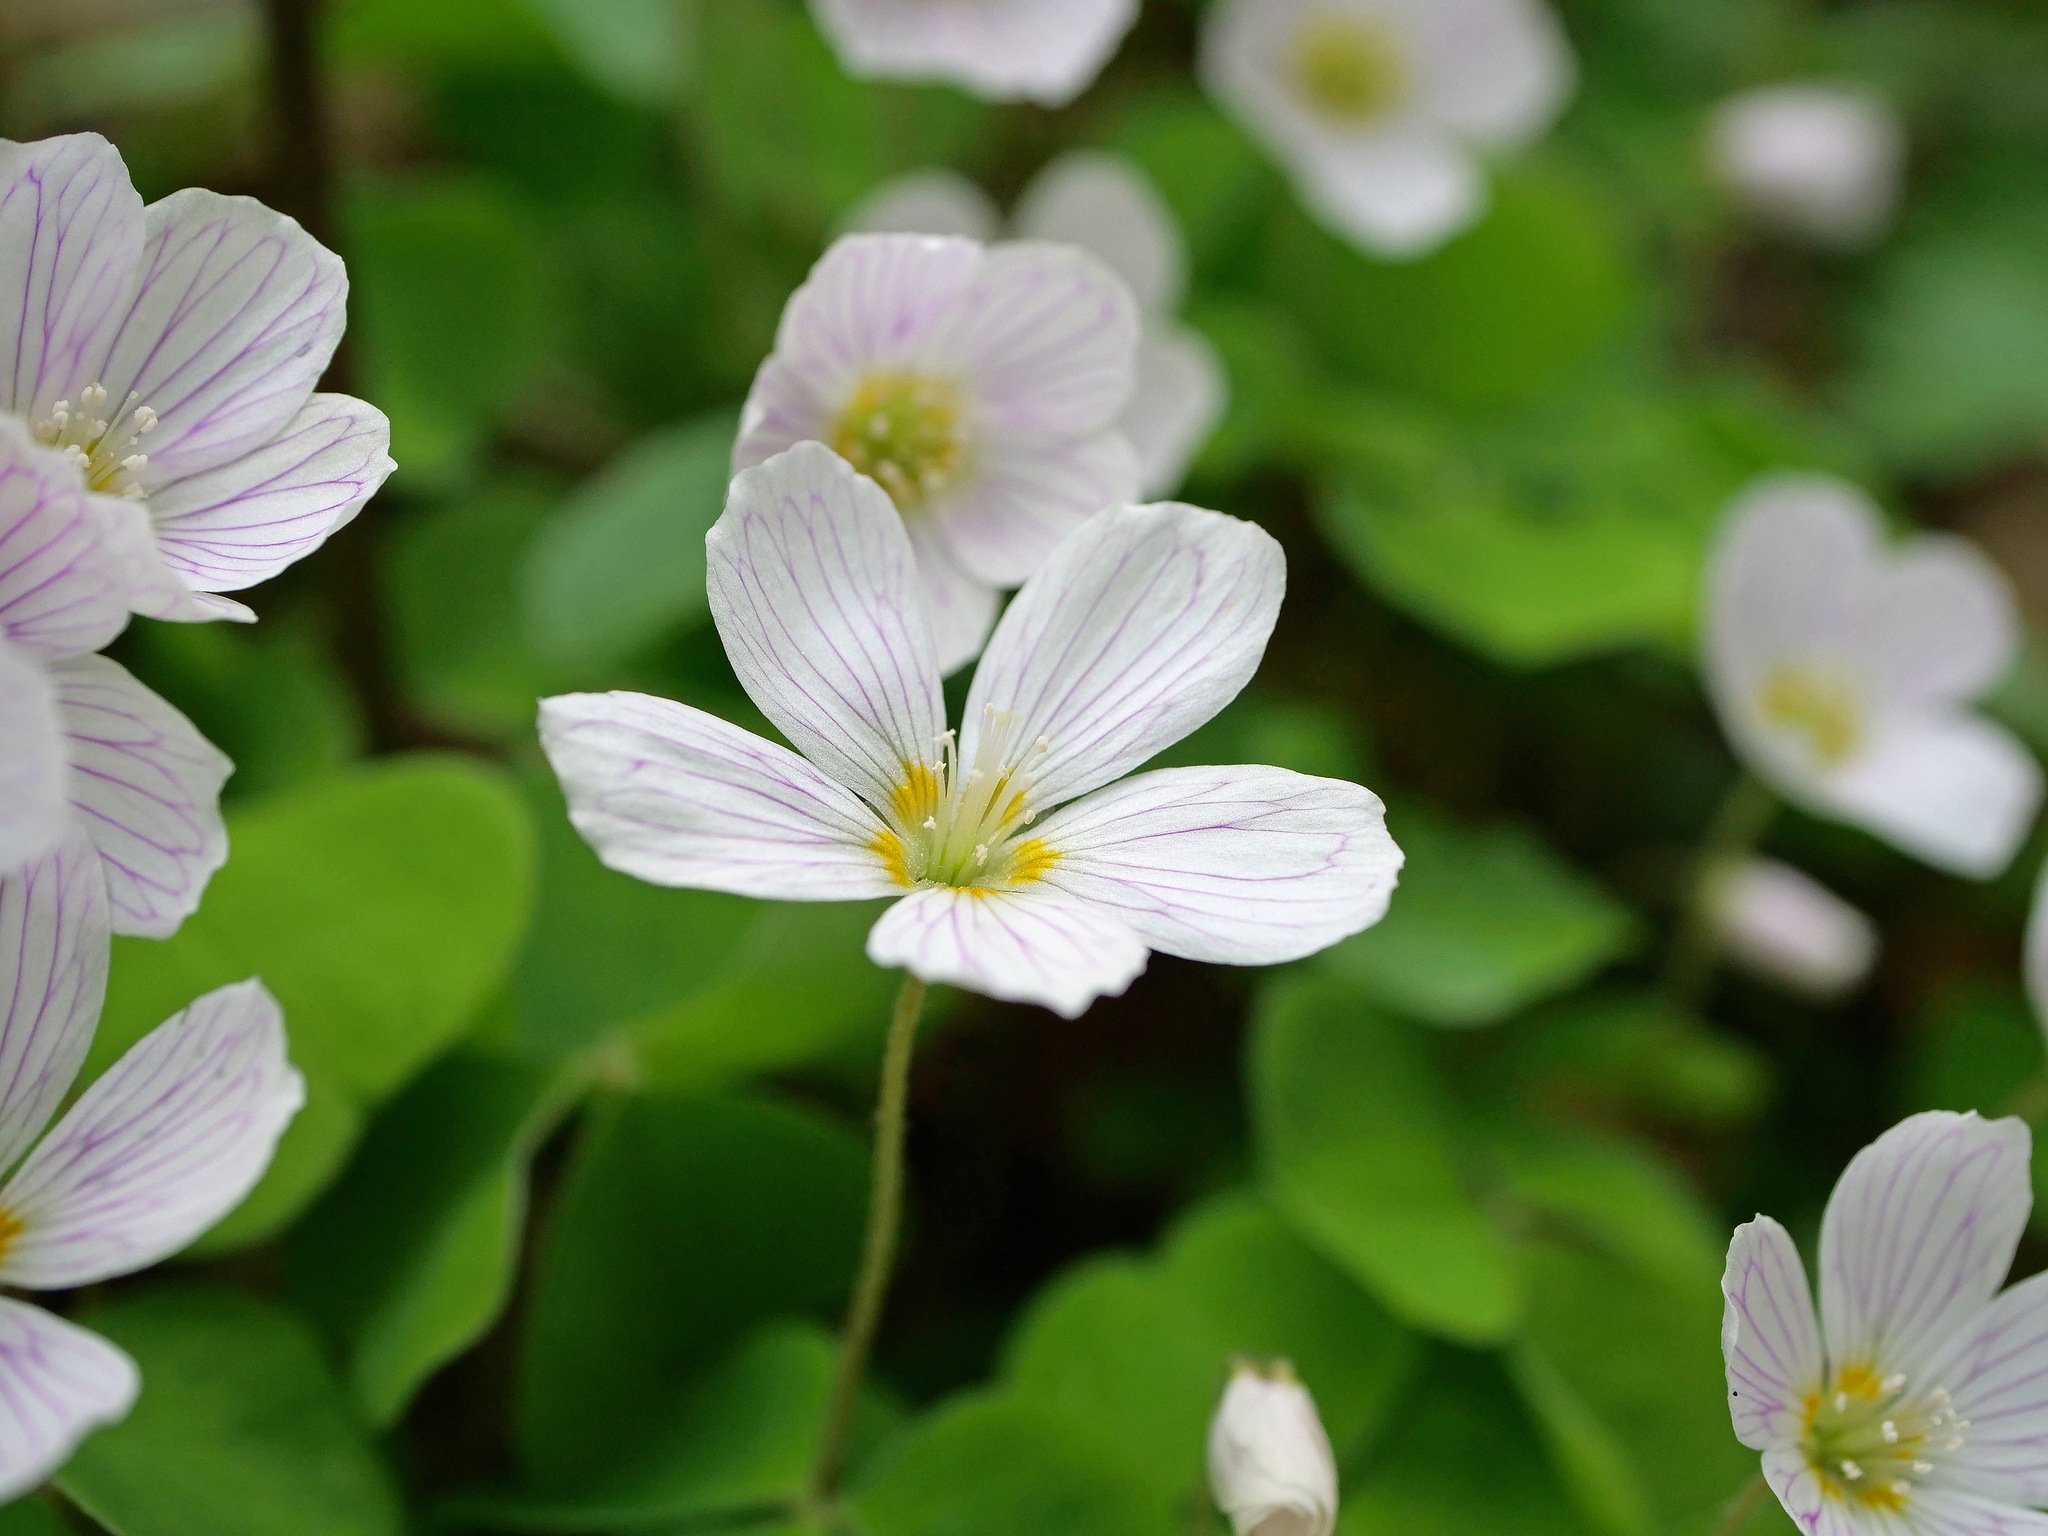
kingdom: Plantae
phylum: Tracheophyta
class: Magnoliopsida
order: Oxalidales
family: Oxalidaceae
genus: Oxalis
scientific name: Oxalis acetosella
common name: Wood-sorrel
